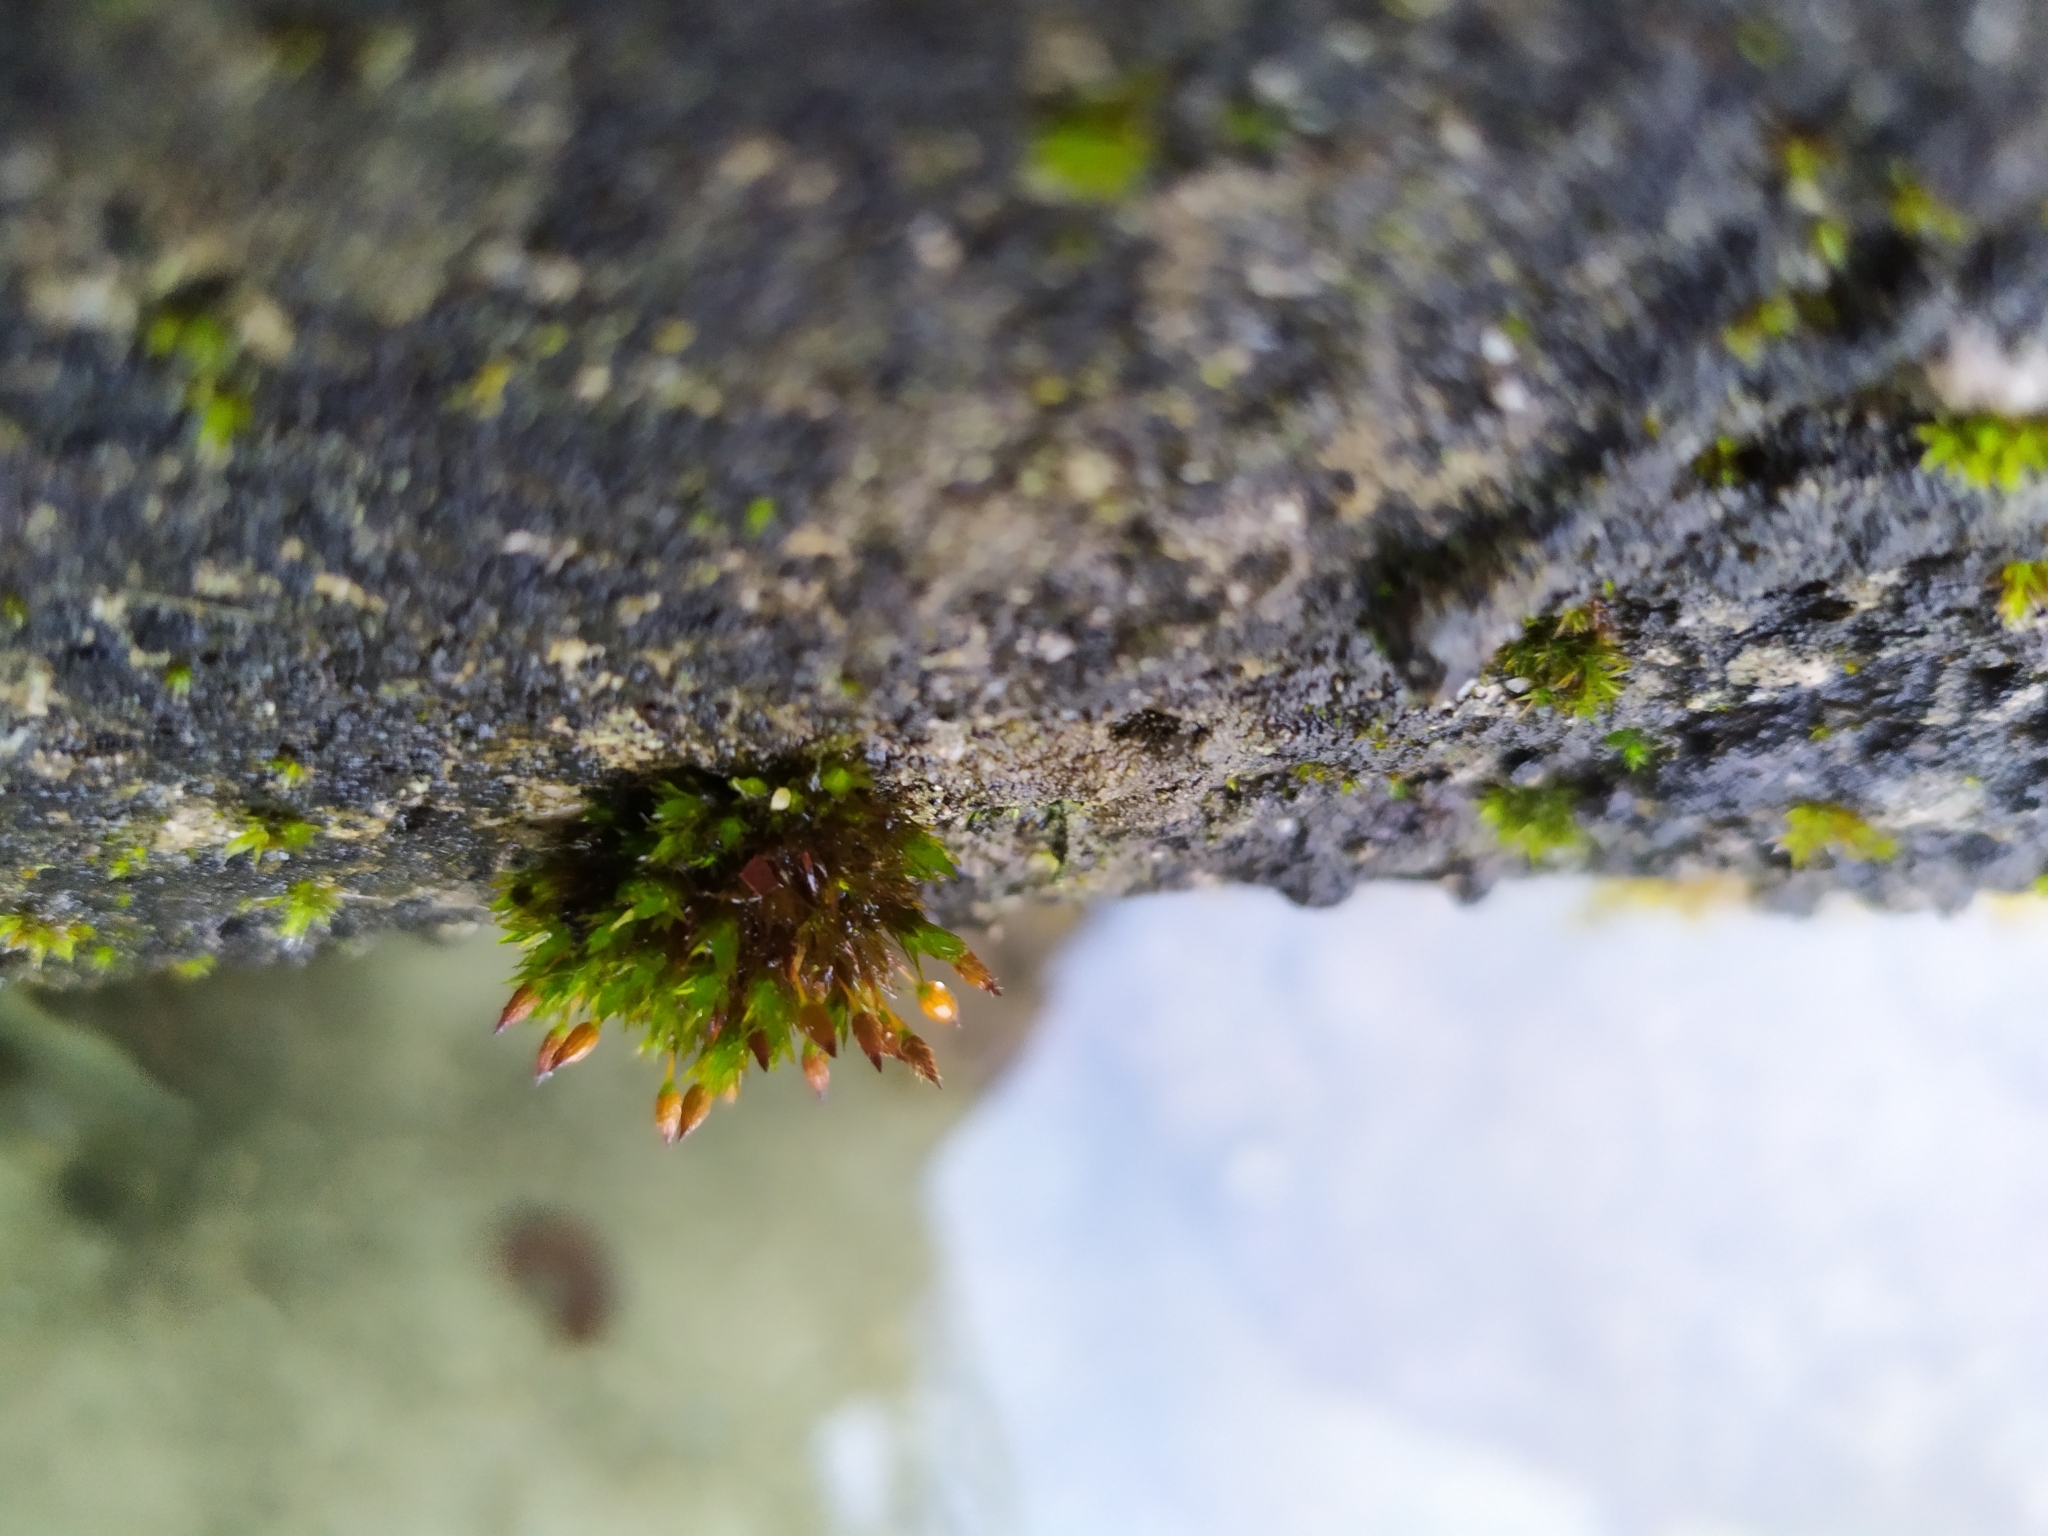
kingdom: Plantae
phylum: Bryophyta
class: Bryopsida
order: Orthotrichales
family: Orthotrichaceae
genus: Orthotrichum
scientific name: Orthotrichum anomalum
